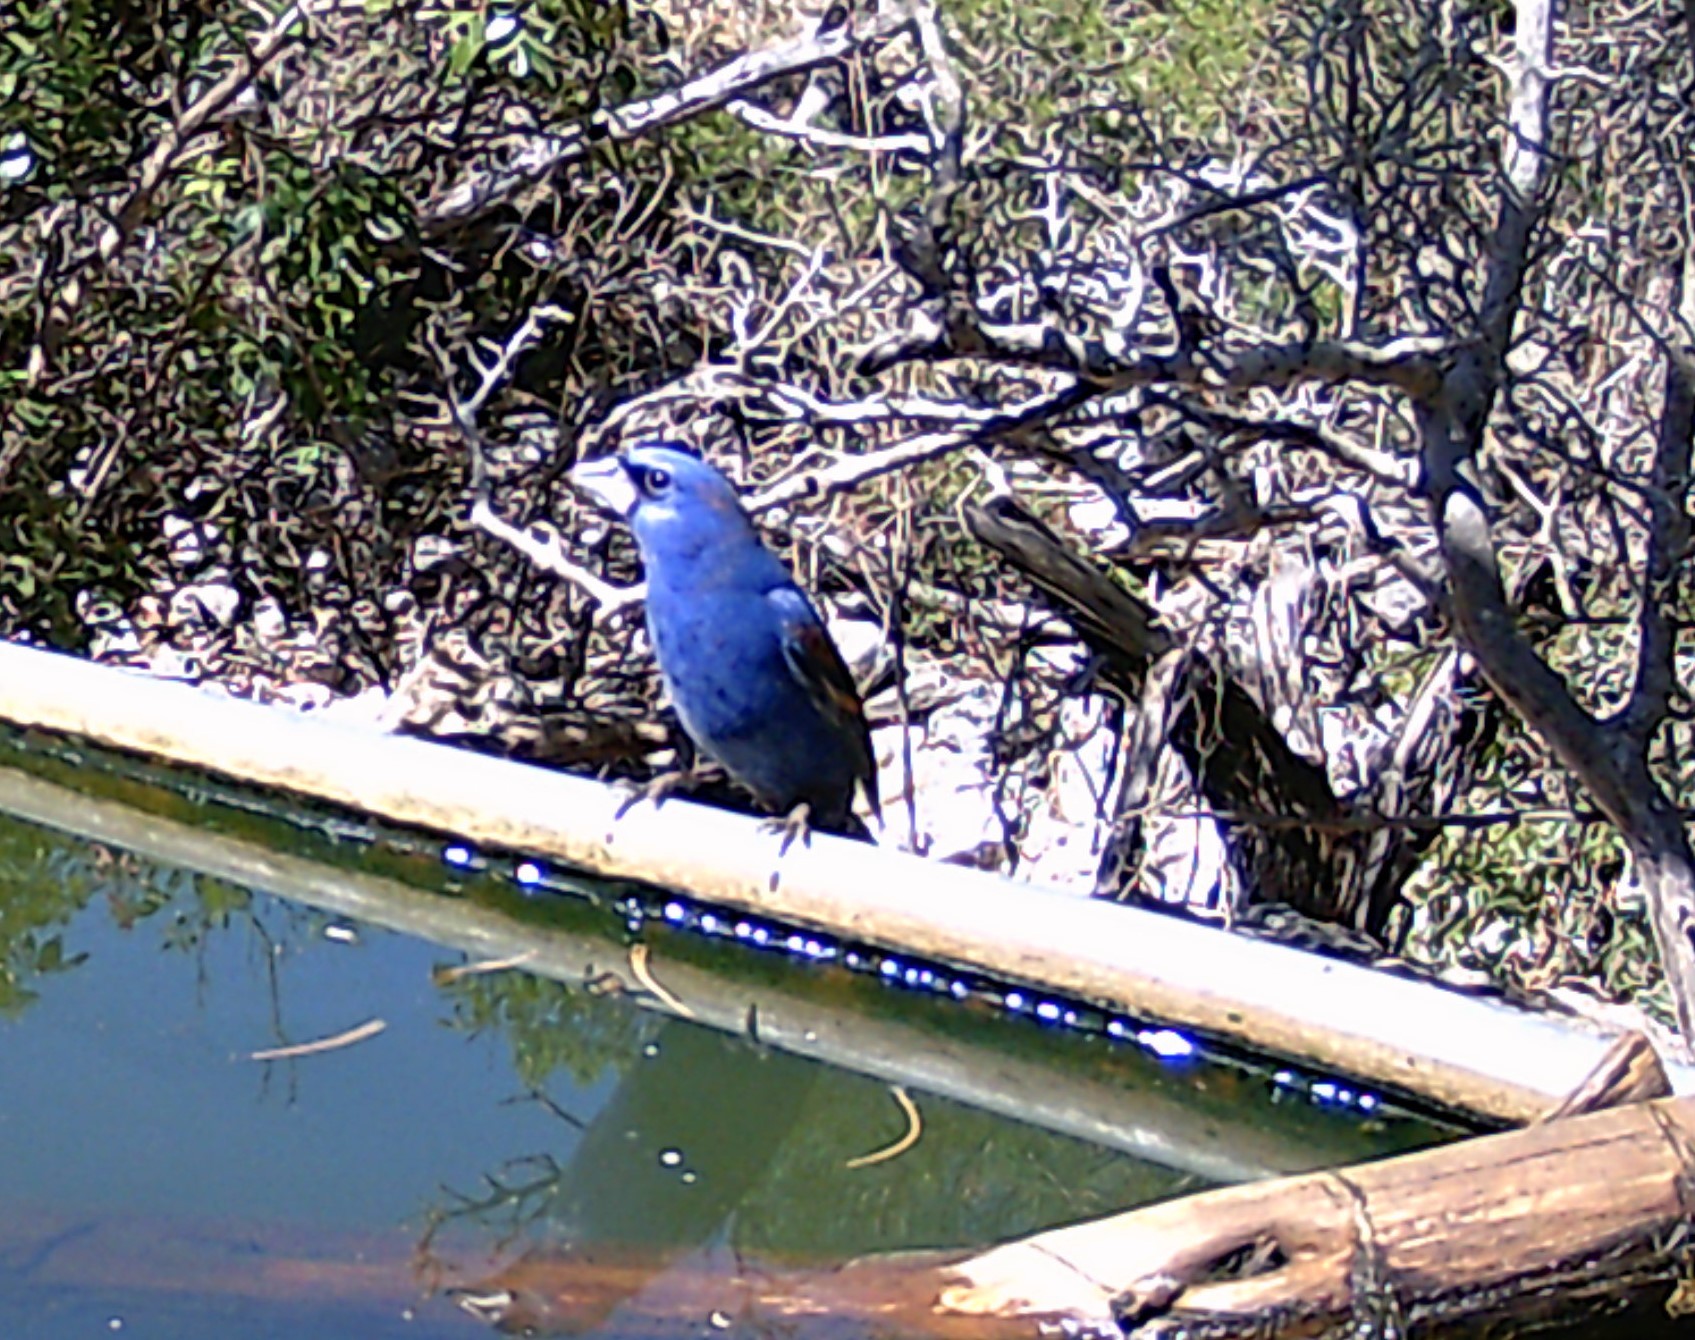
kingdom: Animalia
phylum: Chordata
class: Aves
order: Passeriformes
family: Cardinalidae
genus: Passerina
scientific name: Passerina caerulea
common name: Blue grosbeak
